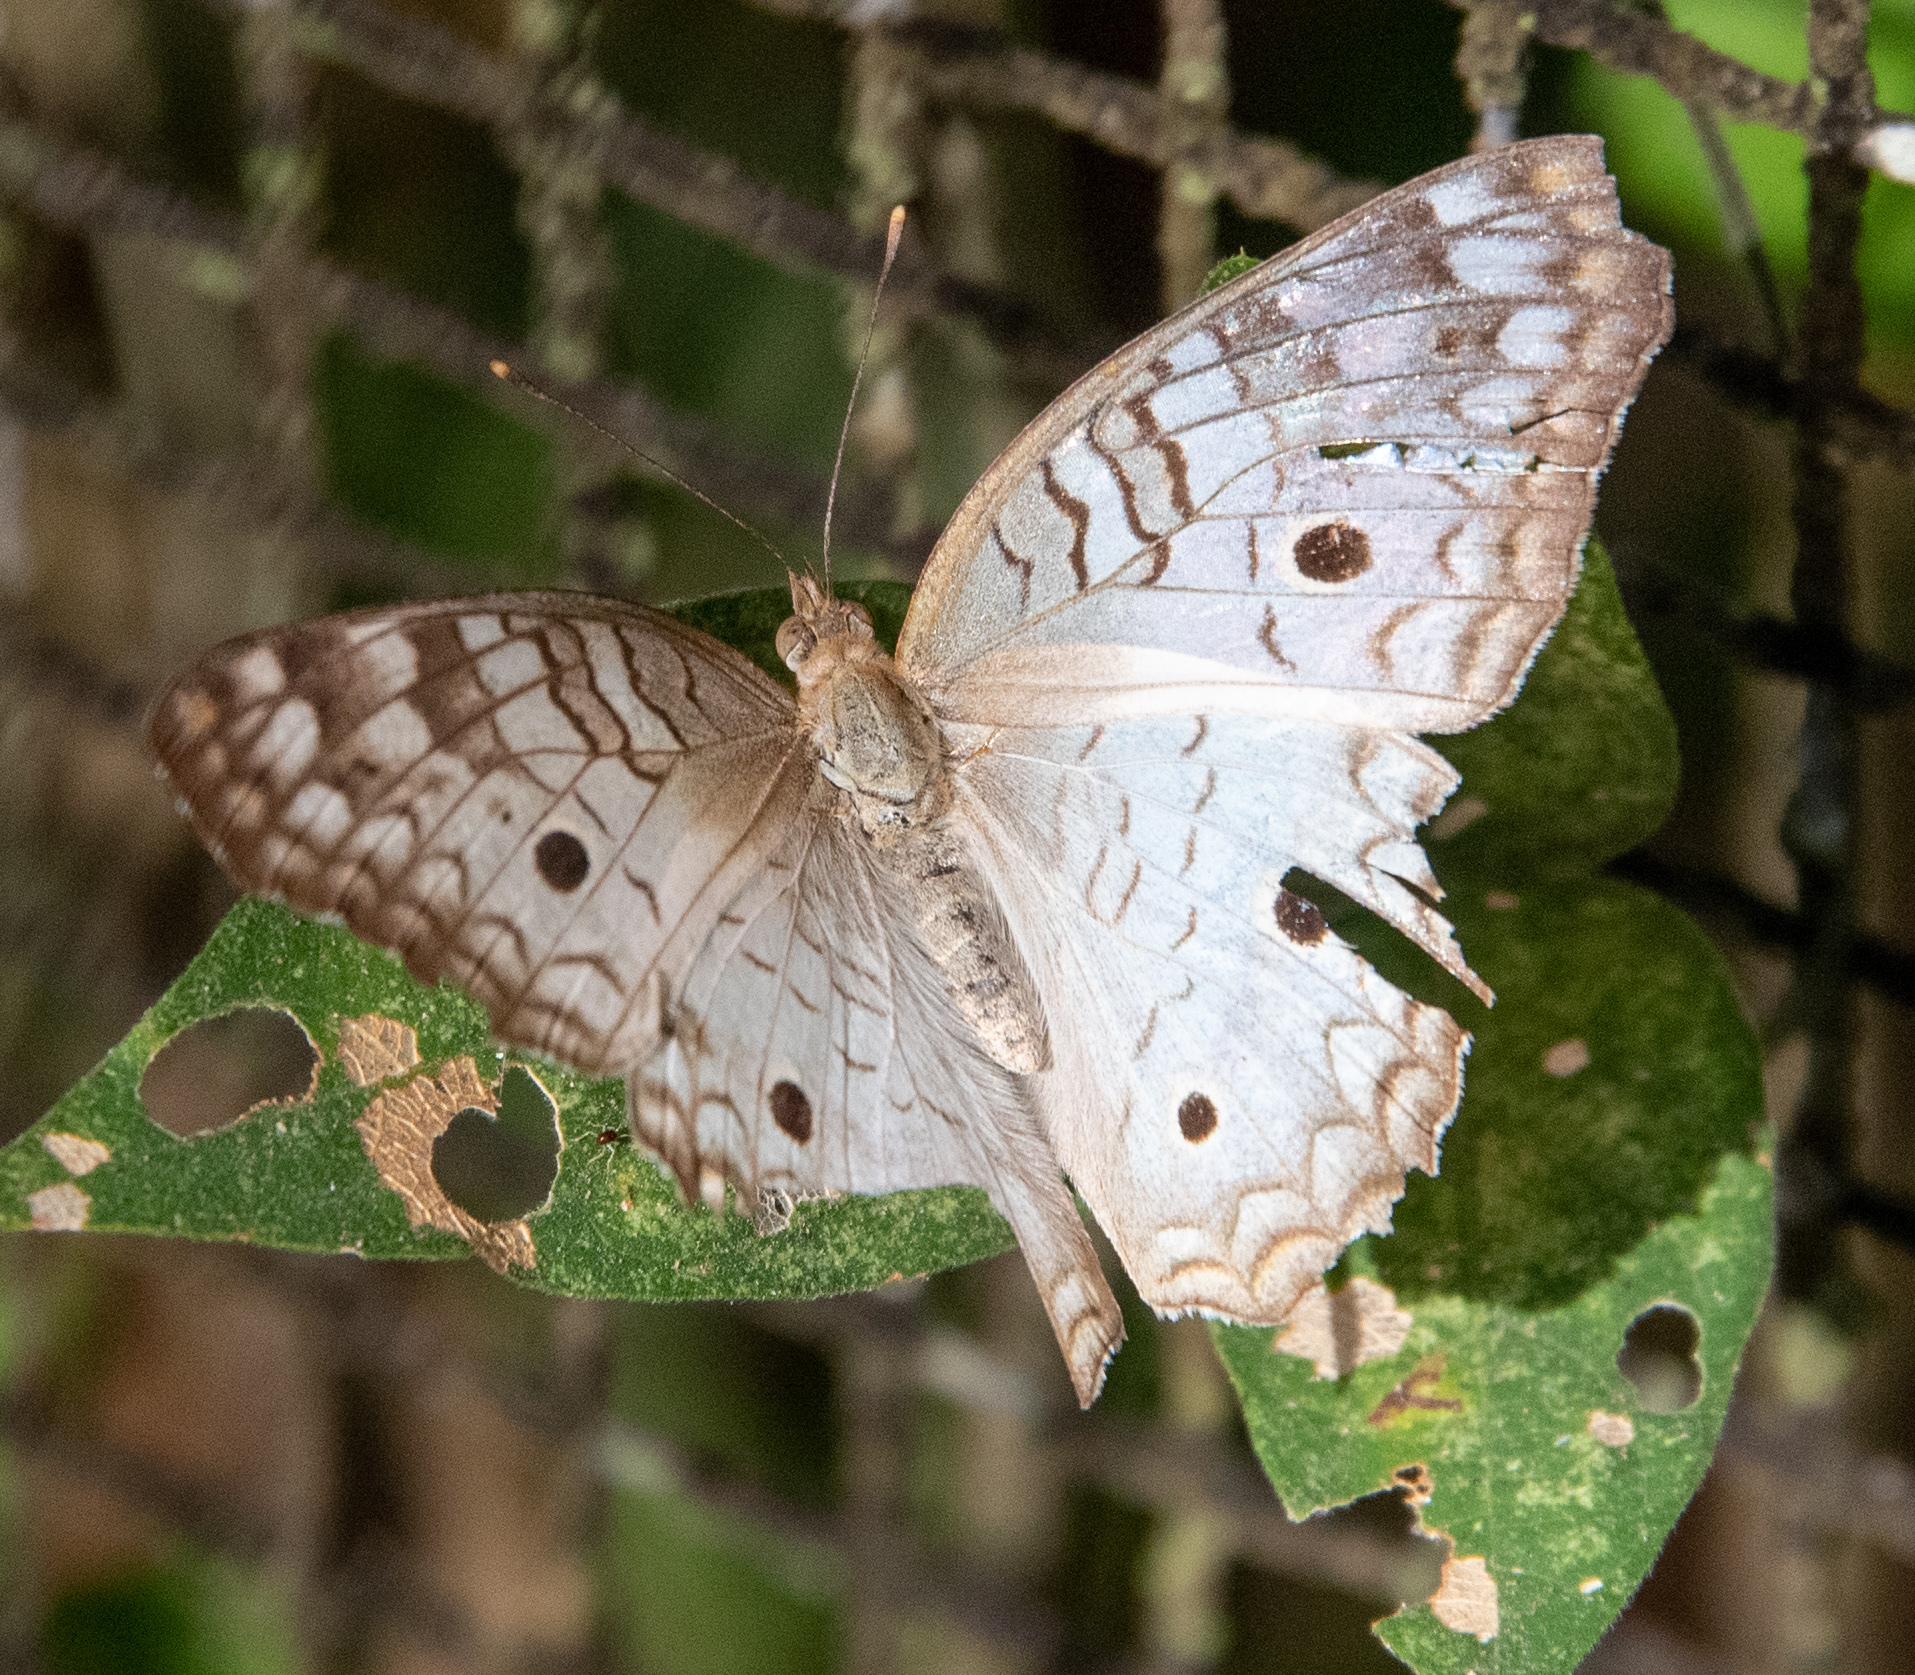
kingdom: Animalia
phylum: Arthropoda
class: Insecta
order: Lepidoptera
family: Nymphalidae
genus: Anartia
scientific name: Anartia jatrophae
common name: White peacock
